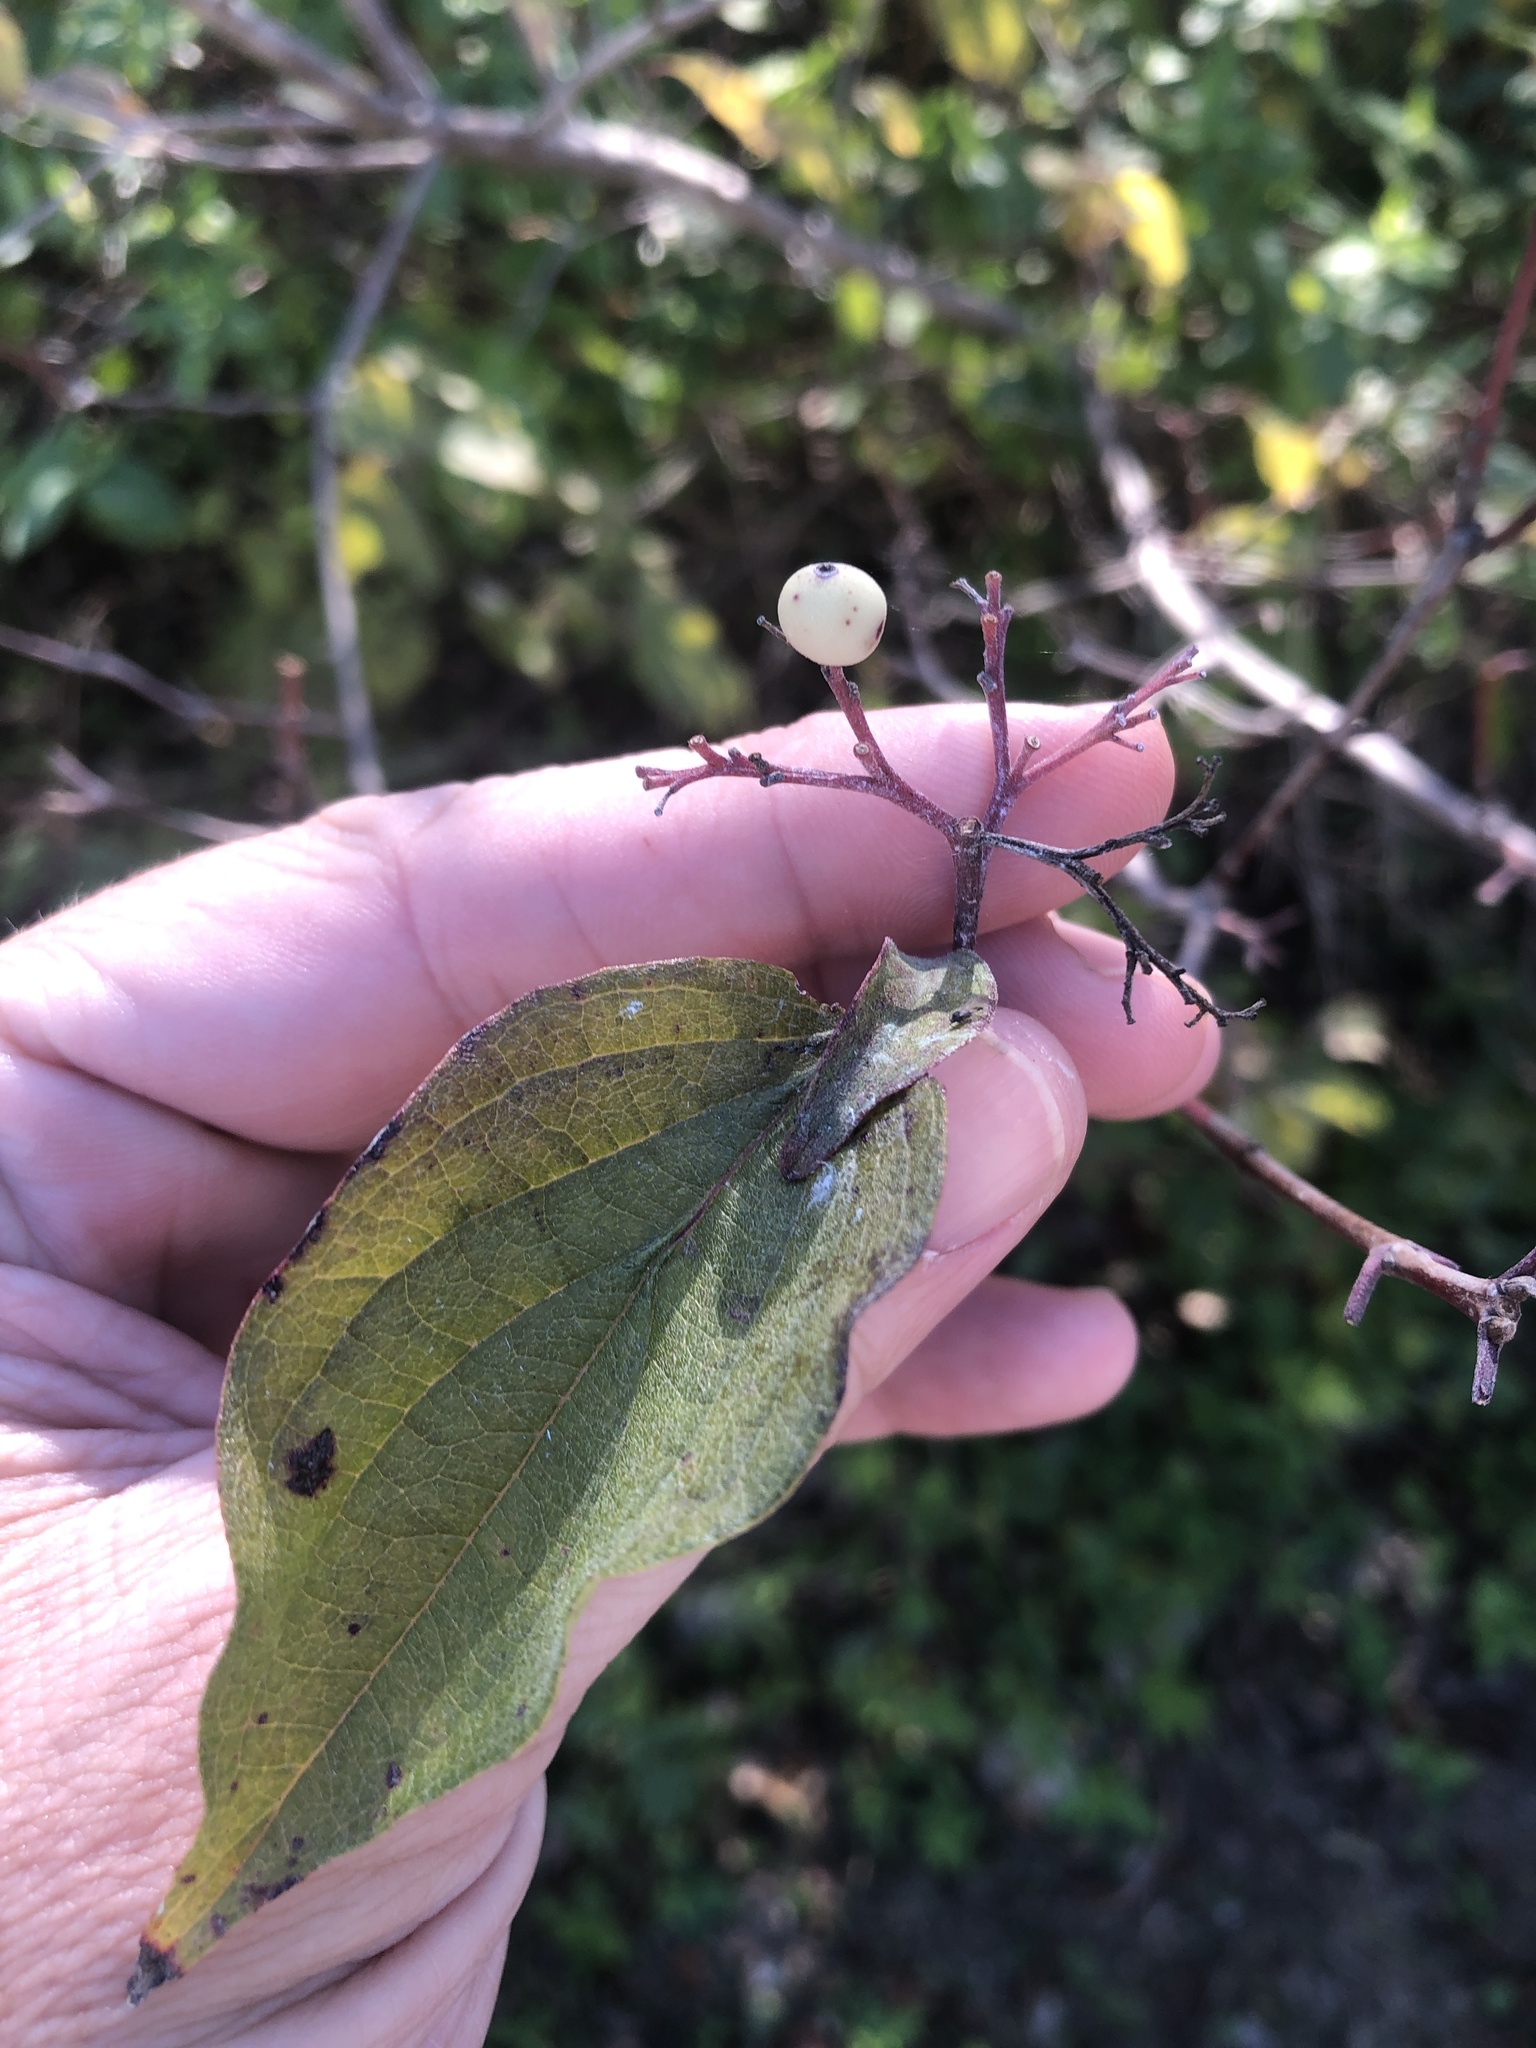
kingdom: Plantae
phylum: Tracheophyta
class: Magnoliopsida
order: Cornales
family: Cornaceae
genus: Cornus
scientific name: Cornus drummondii
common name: Rough-leaf dogwood
